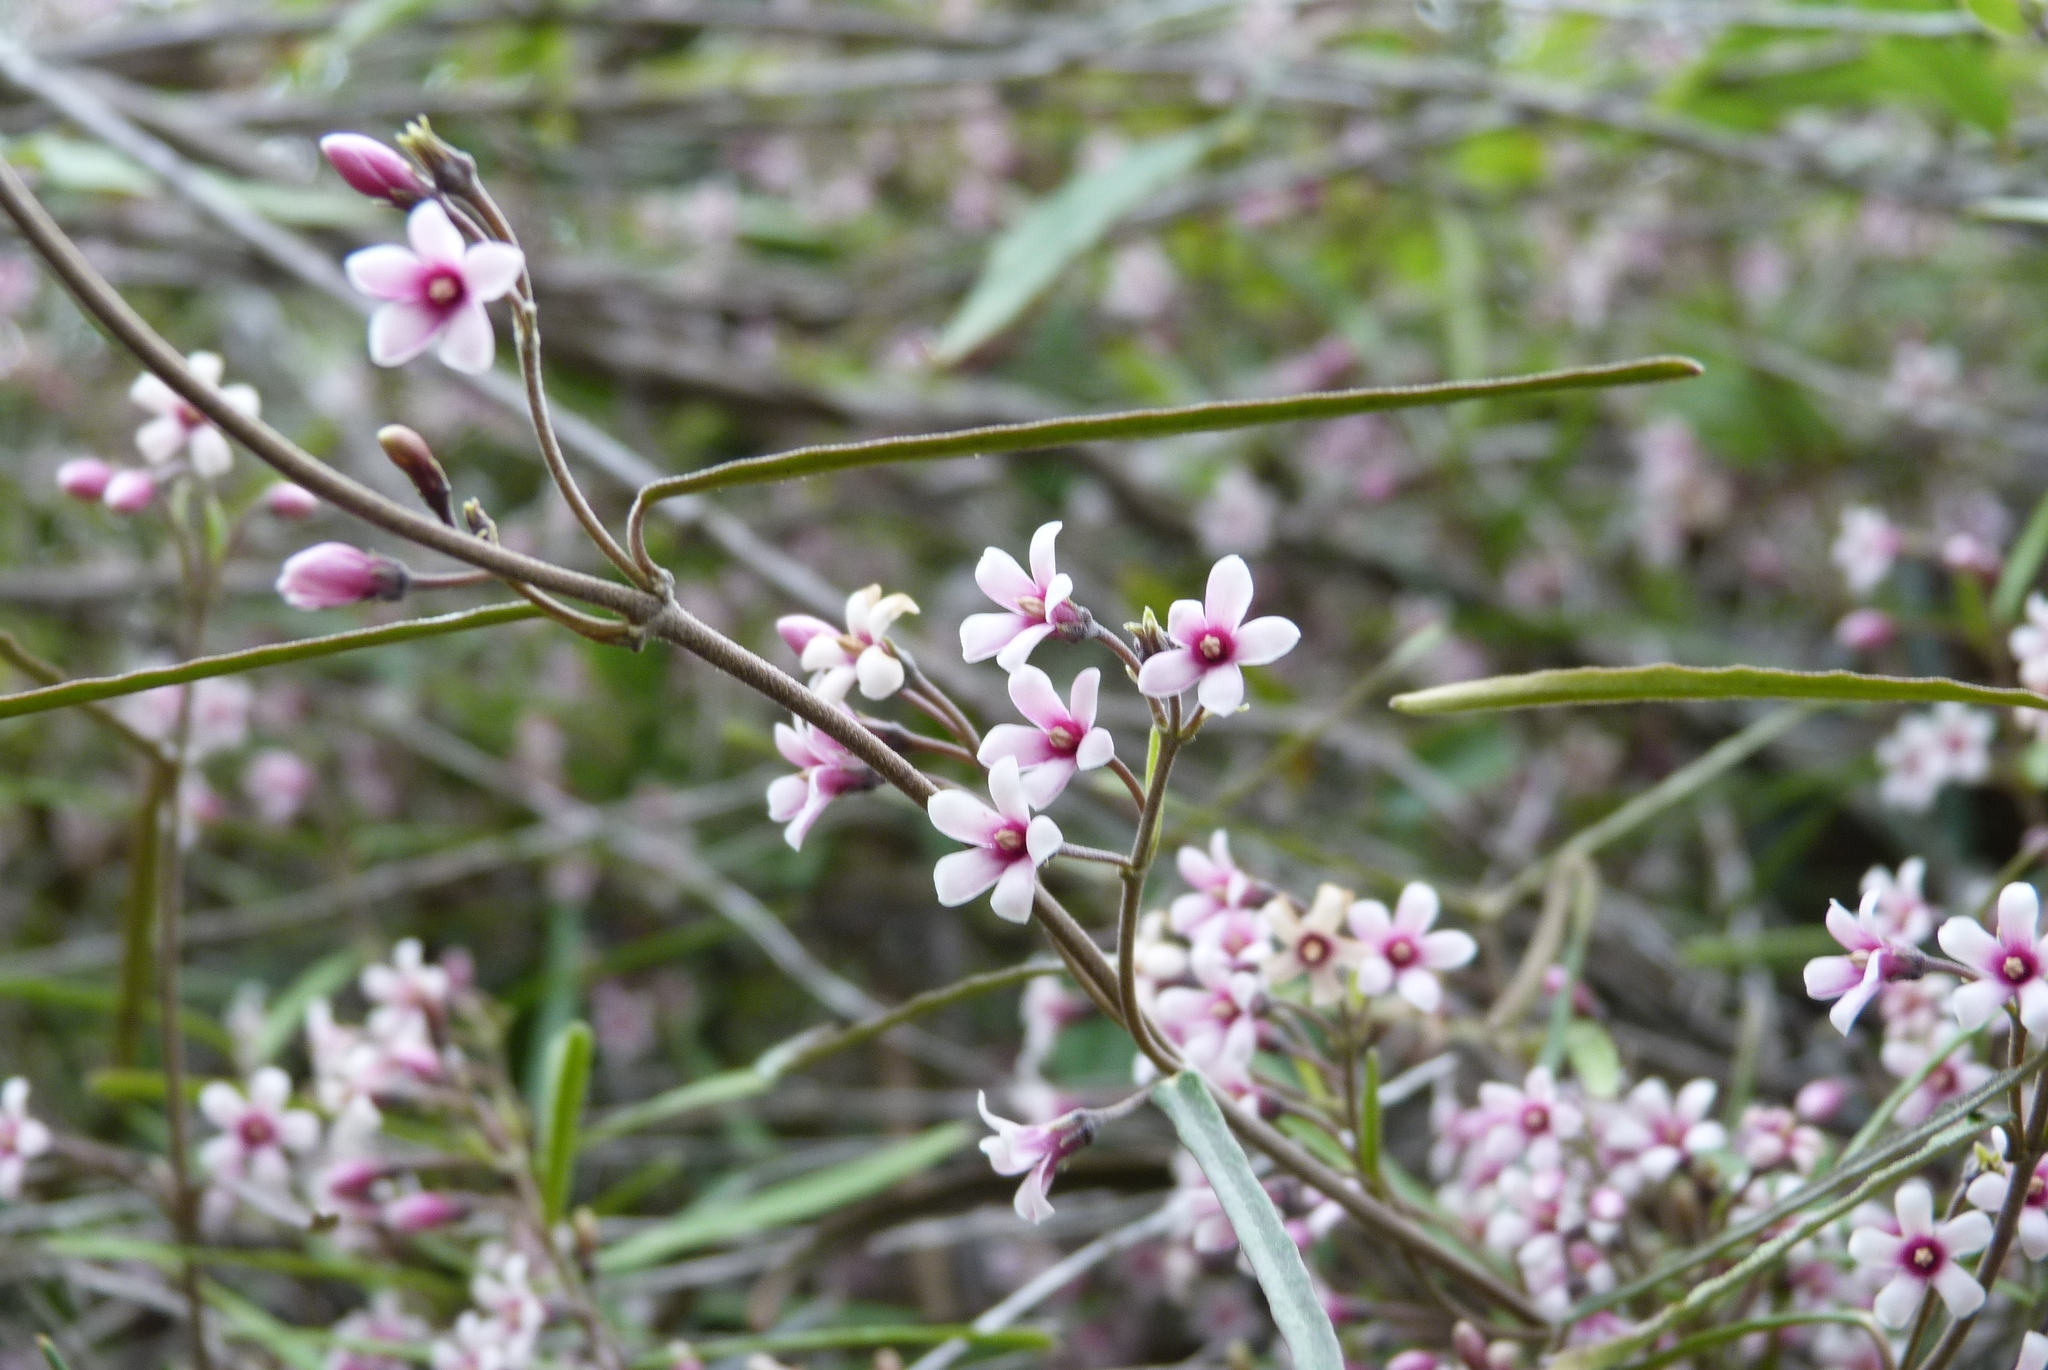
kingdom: Plantae
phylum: Tracheophyta
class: Magnoliopsida
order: Gentianales
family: Apocynaceae
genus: Parsonsia
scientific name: Parsonsia capsularis
